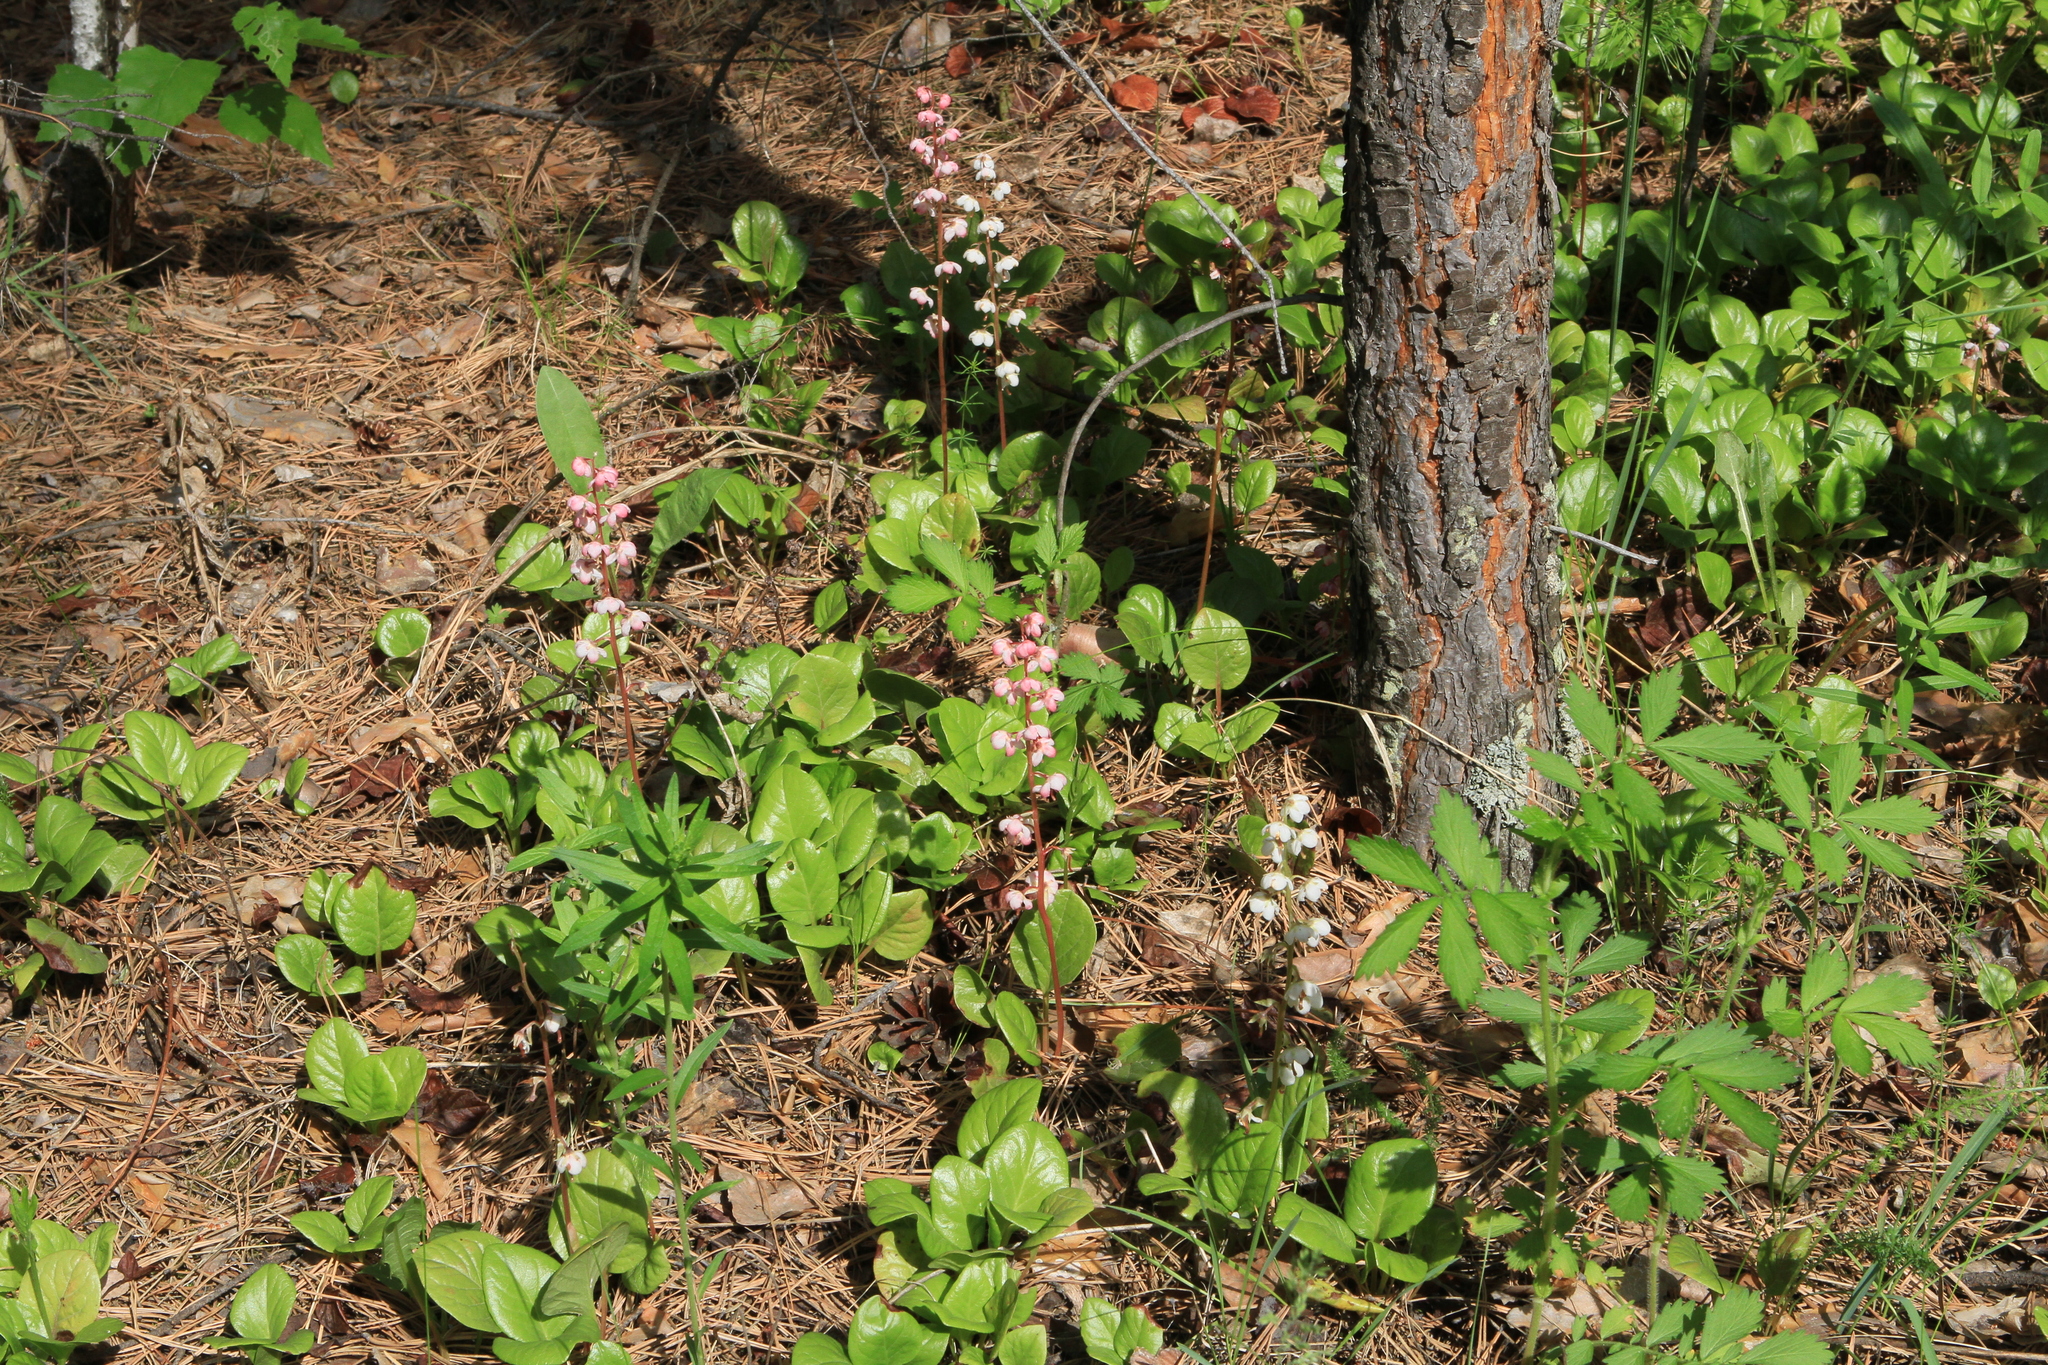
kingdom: Plantae
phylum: Tracheophyta
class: Magnoliopsida
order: Ericales
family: Ericaceae
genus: Pyrola
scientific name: Pyrola asarifolia
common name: Bog wintergreen
